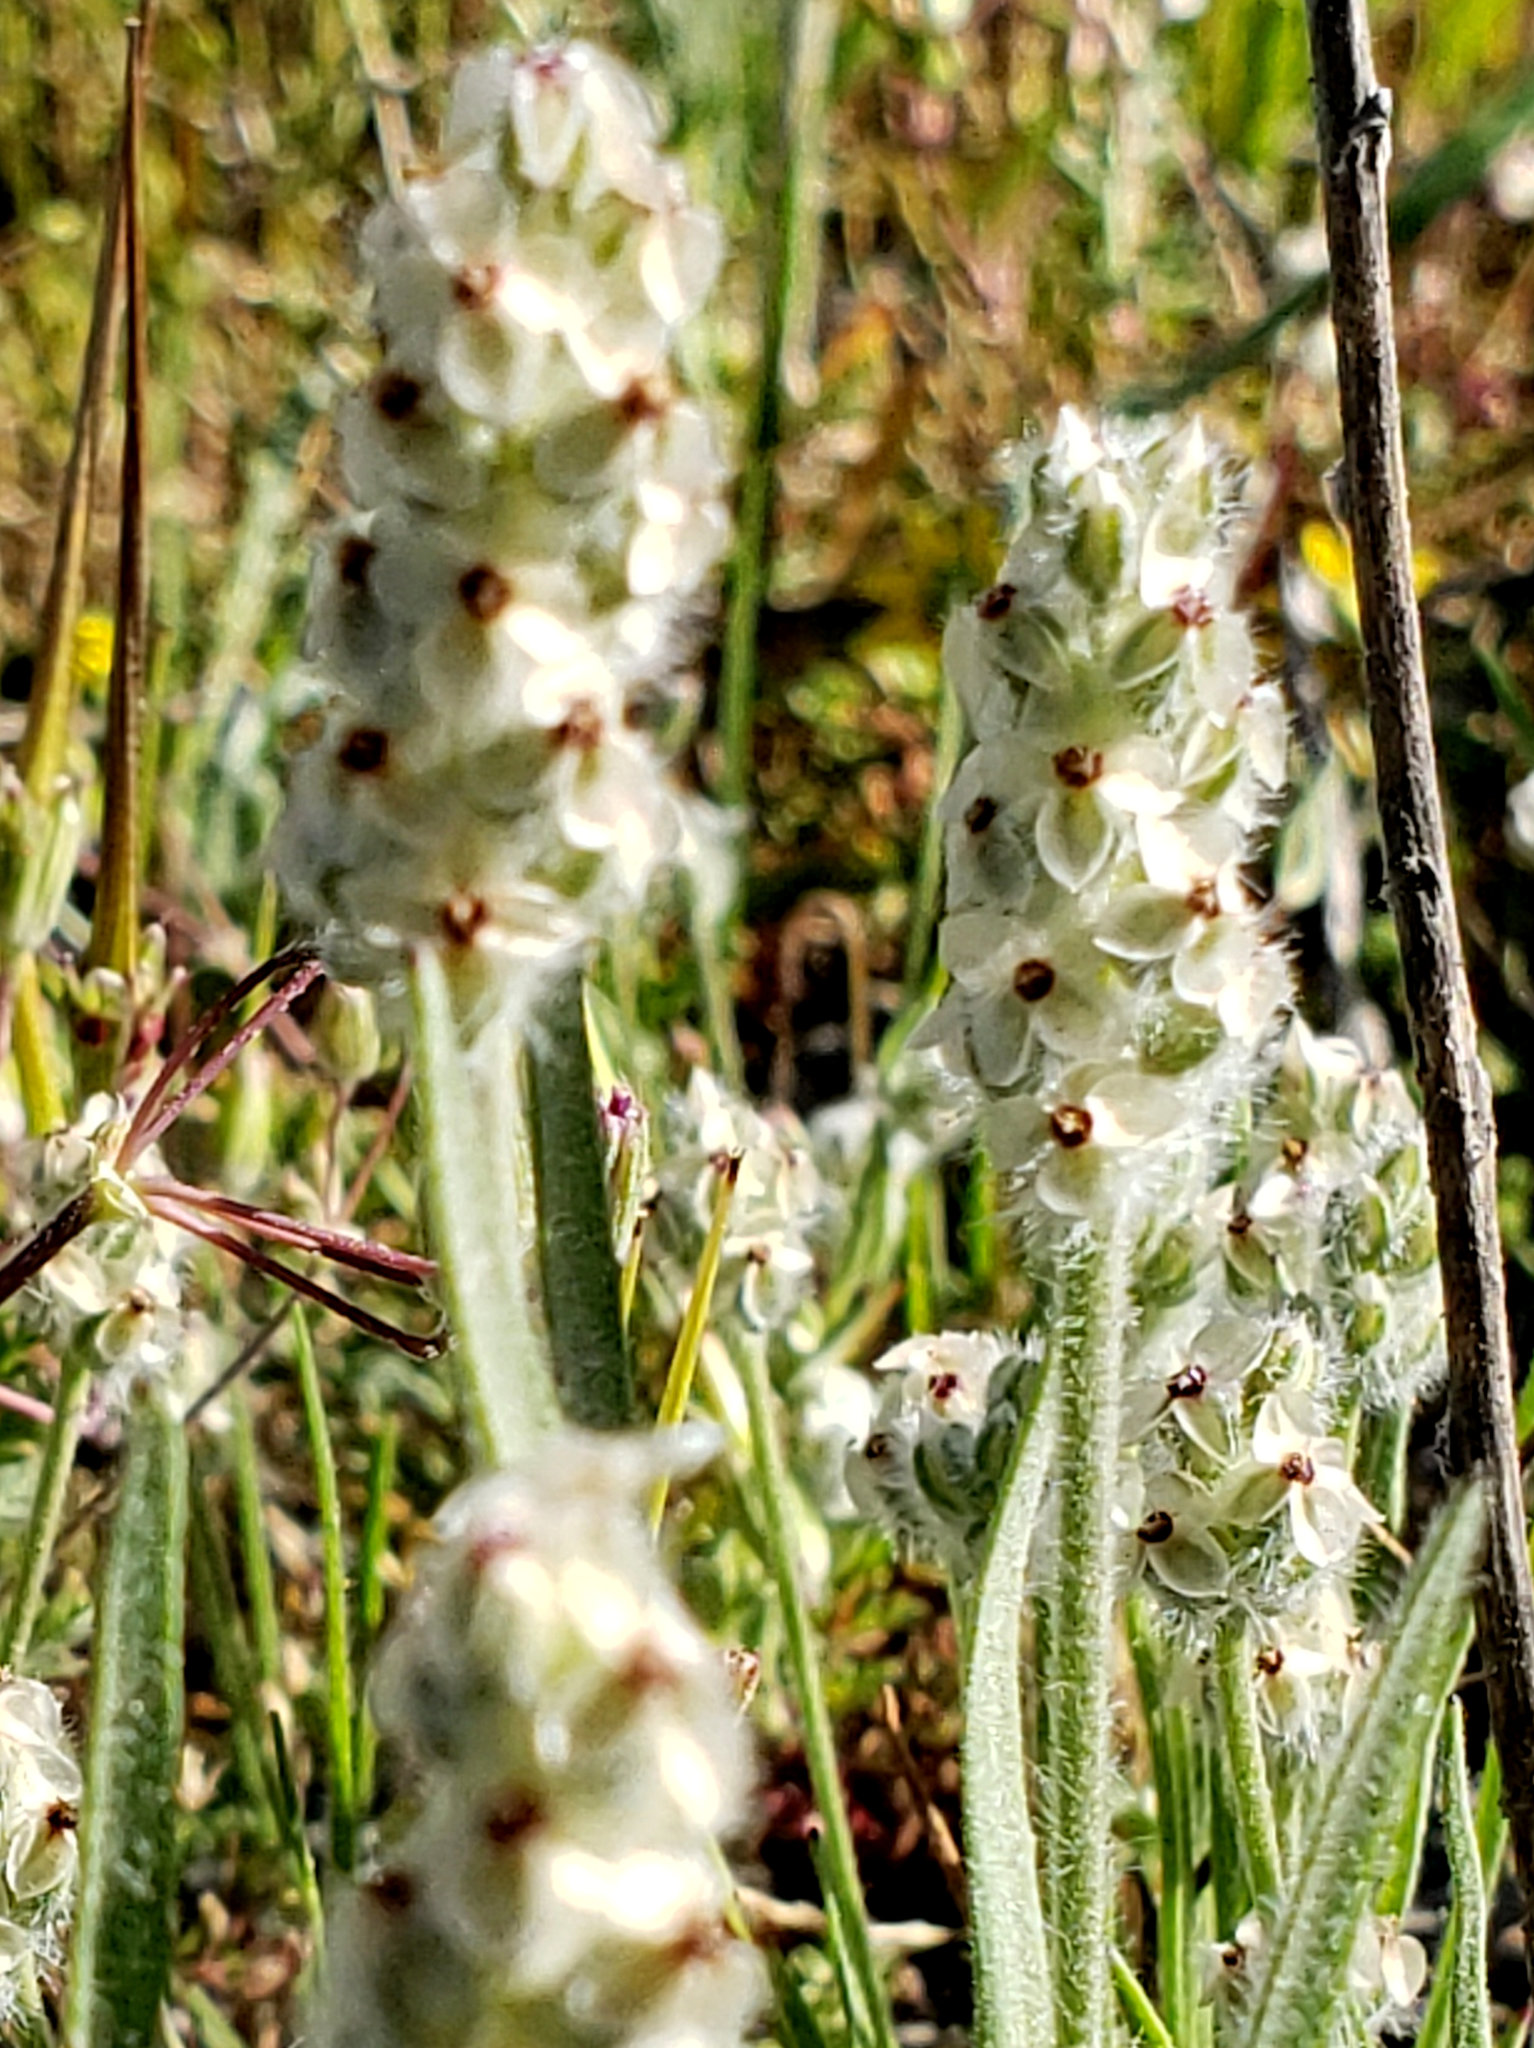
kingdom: Plantae
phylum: Tracheophyta
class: Magnoliopsida
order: Lamiales
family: Plantaginaceae
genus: Plantago
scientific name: Plantago erecta
